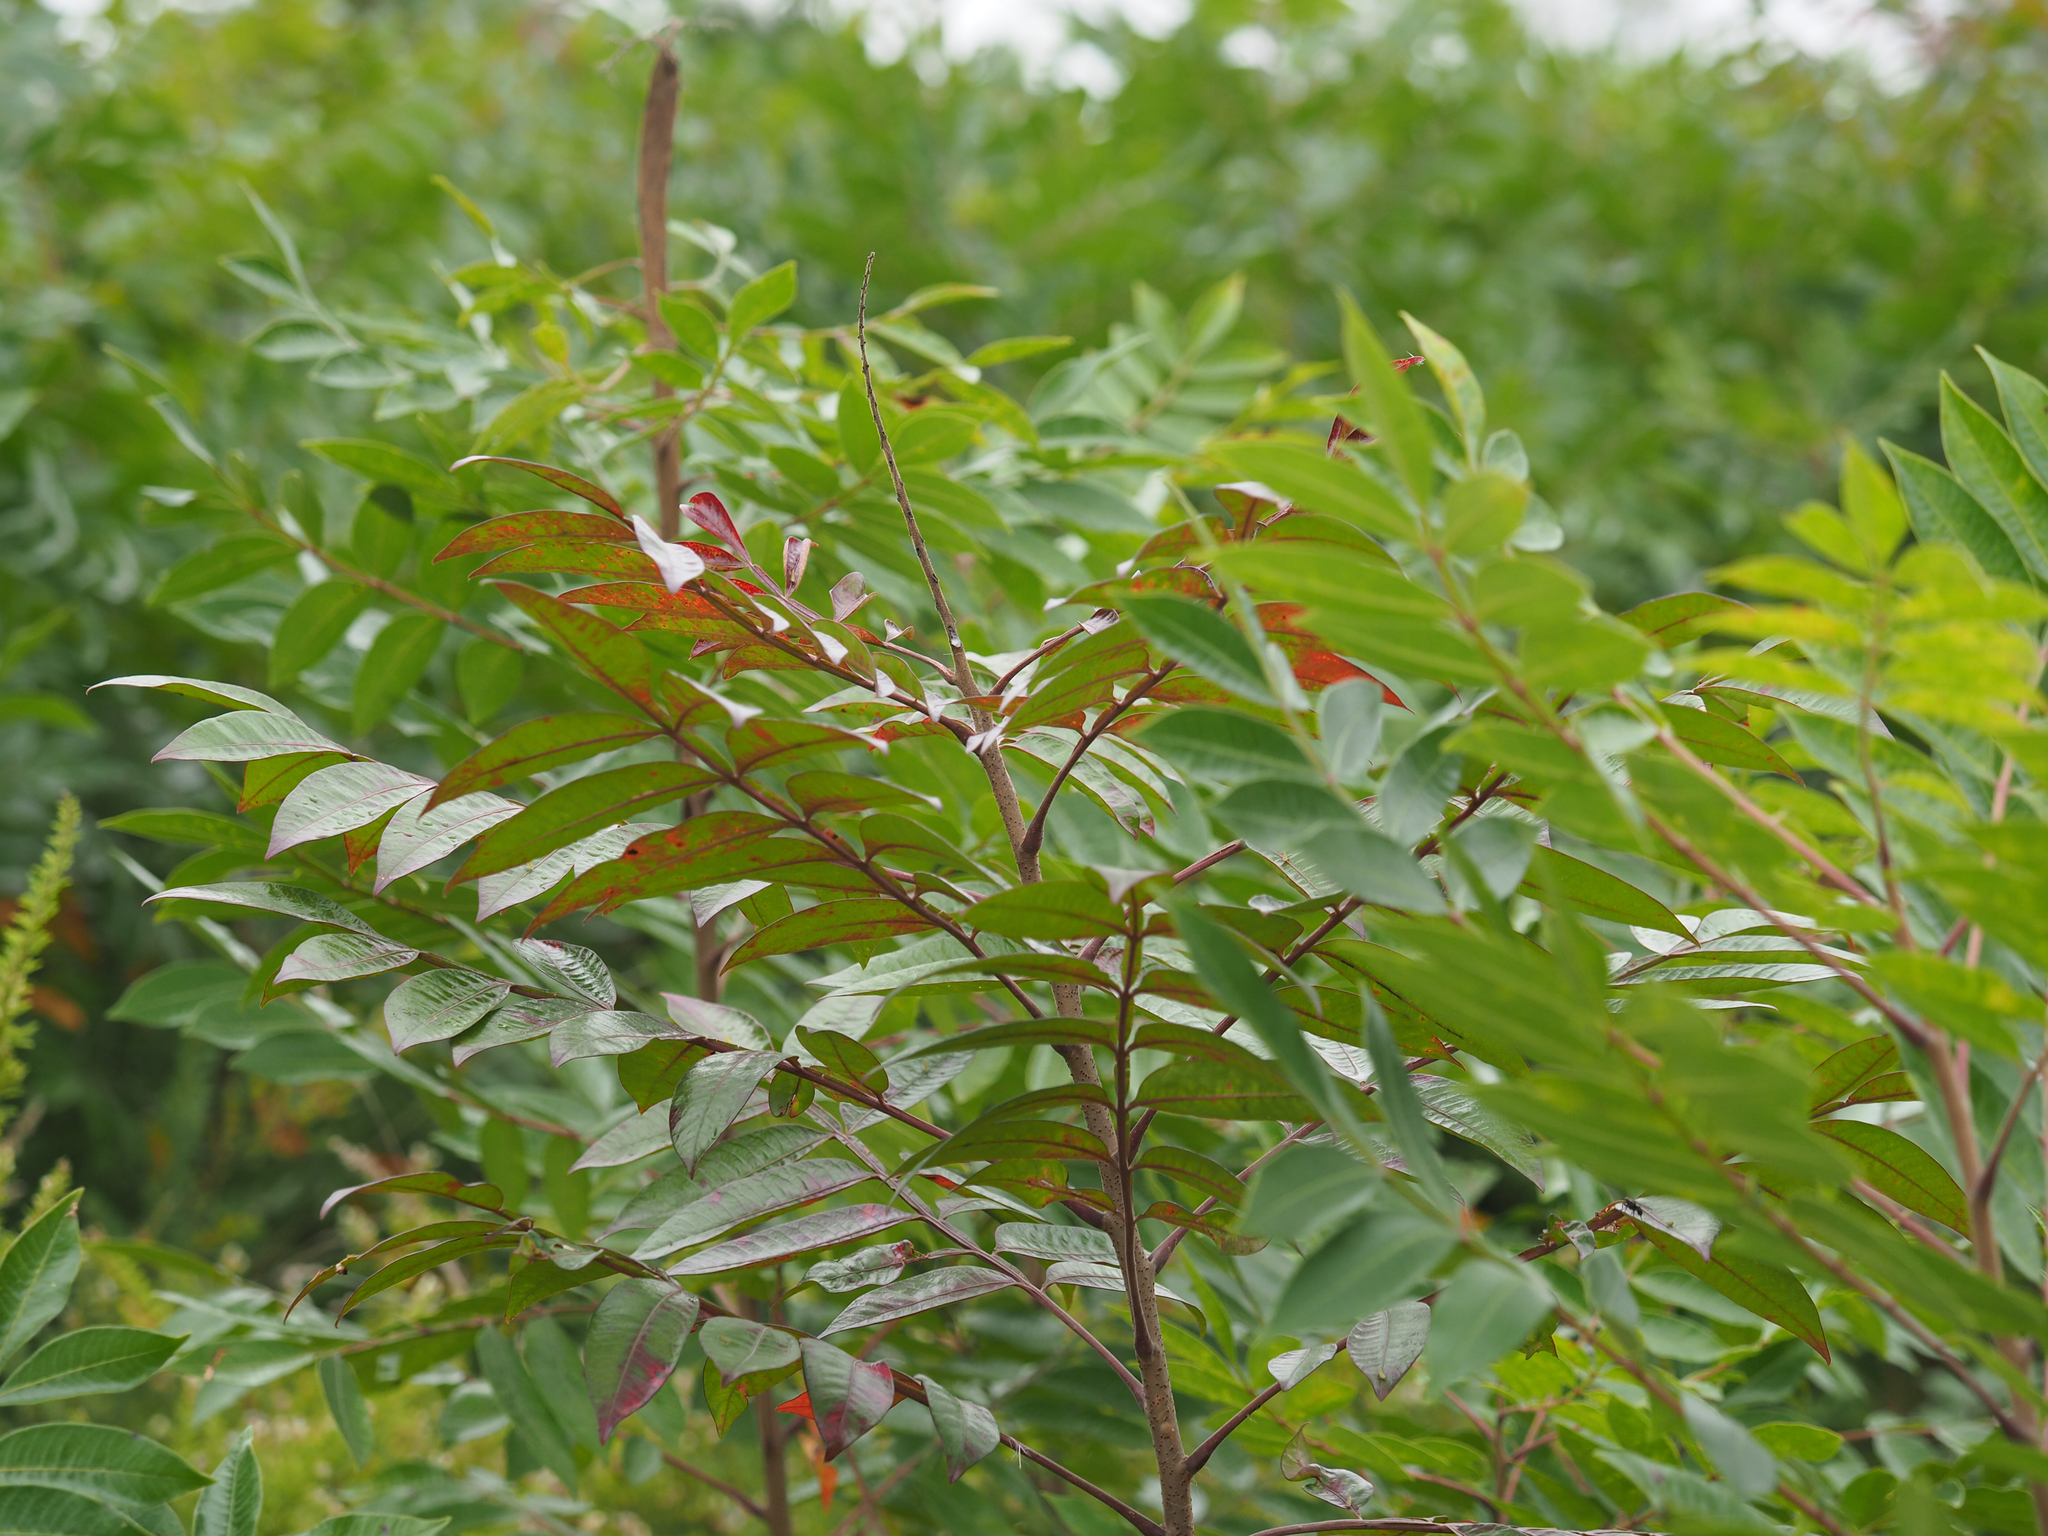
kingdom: Plantae
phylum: Tracheophyta
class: Magnoliopsida
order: Sapindales
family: Anacardiaceae
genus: Rhus
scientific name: Rhus copallina
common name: Shining sumac
